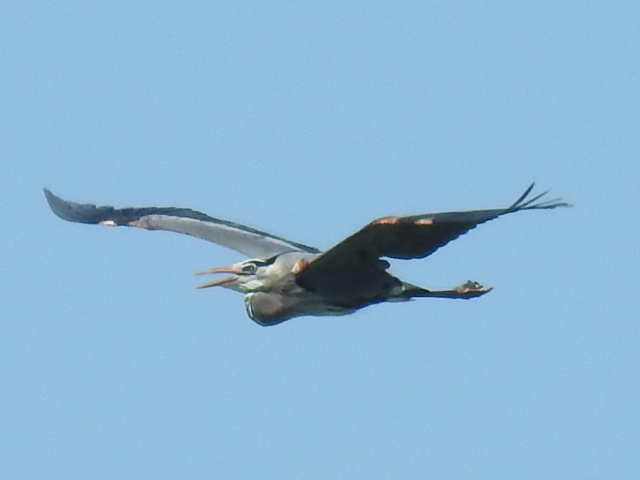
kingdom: Animalia
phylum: Chordata
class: Aves
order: Pelecaniformes
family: Ardeidae
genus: Ardea
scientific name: Ardea herodias
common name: Great blue heron
